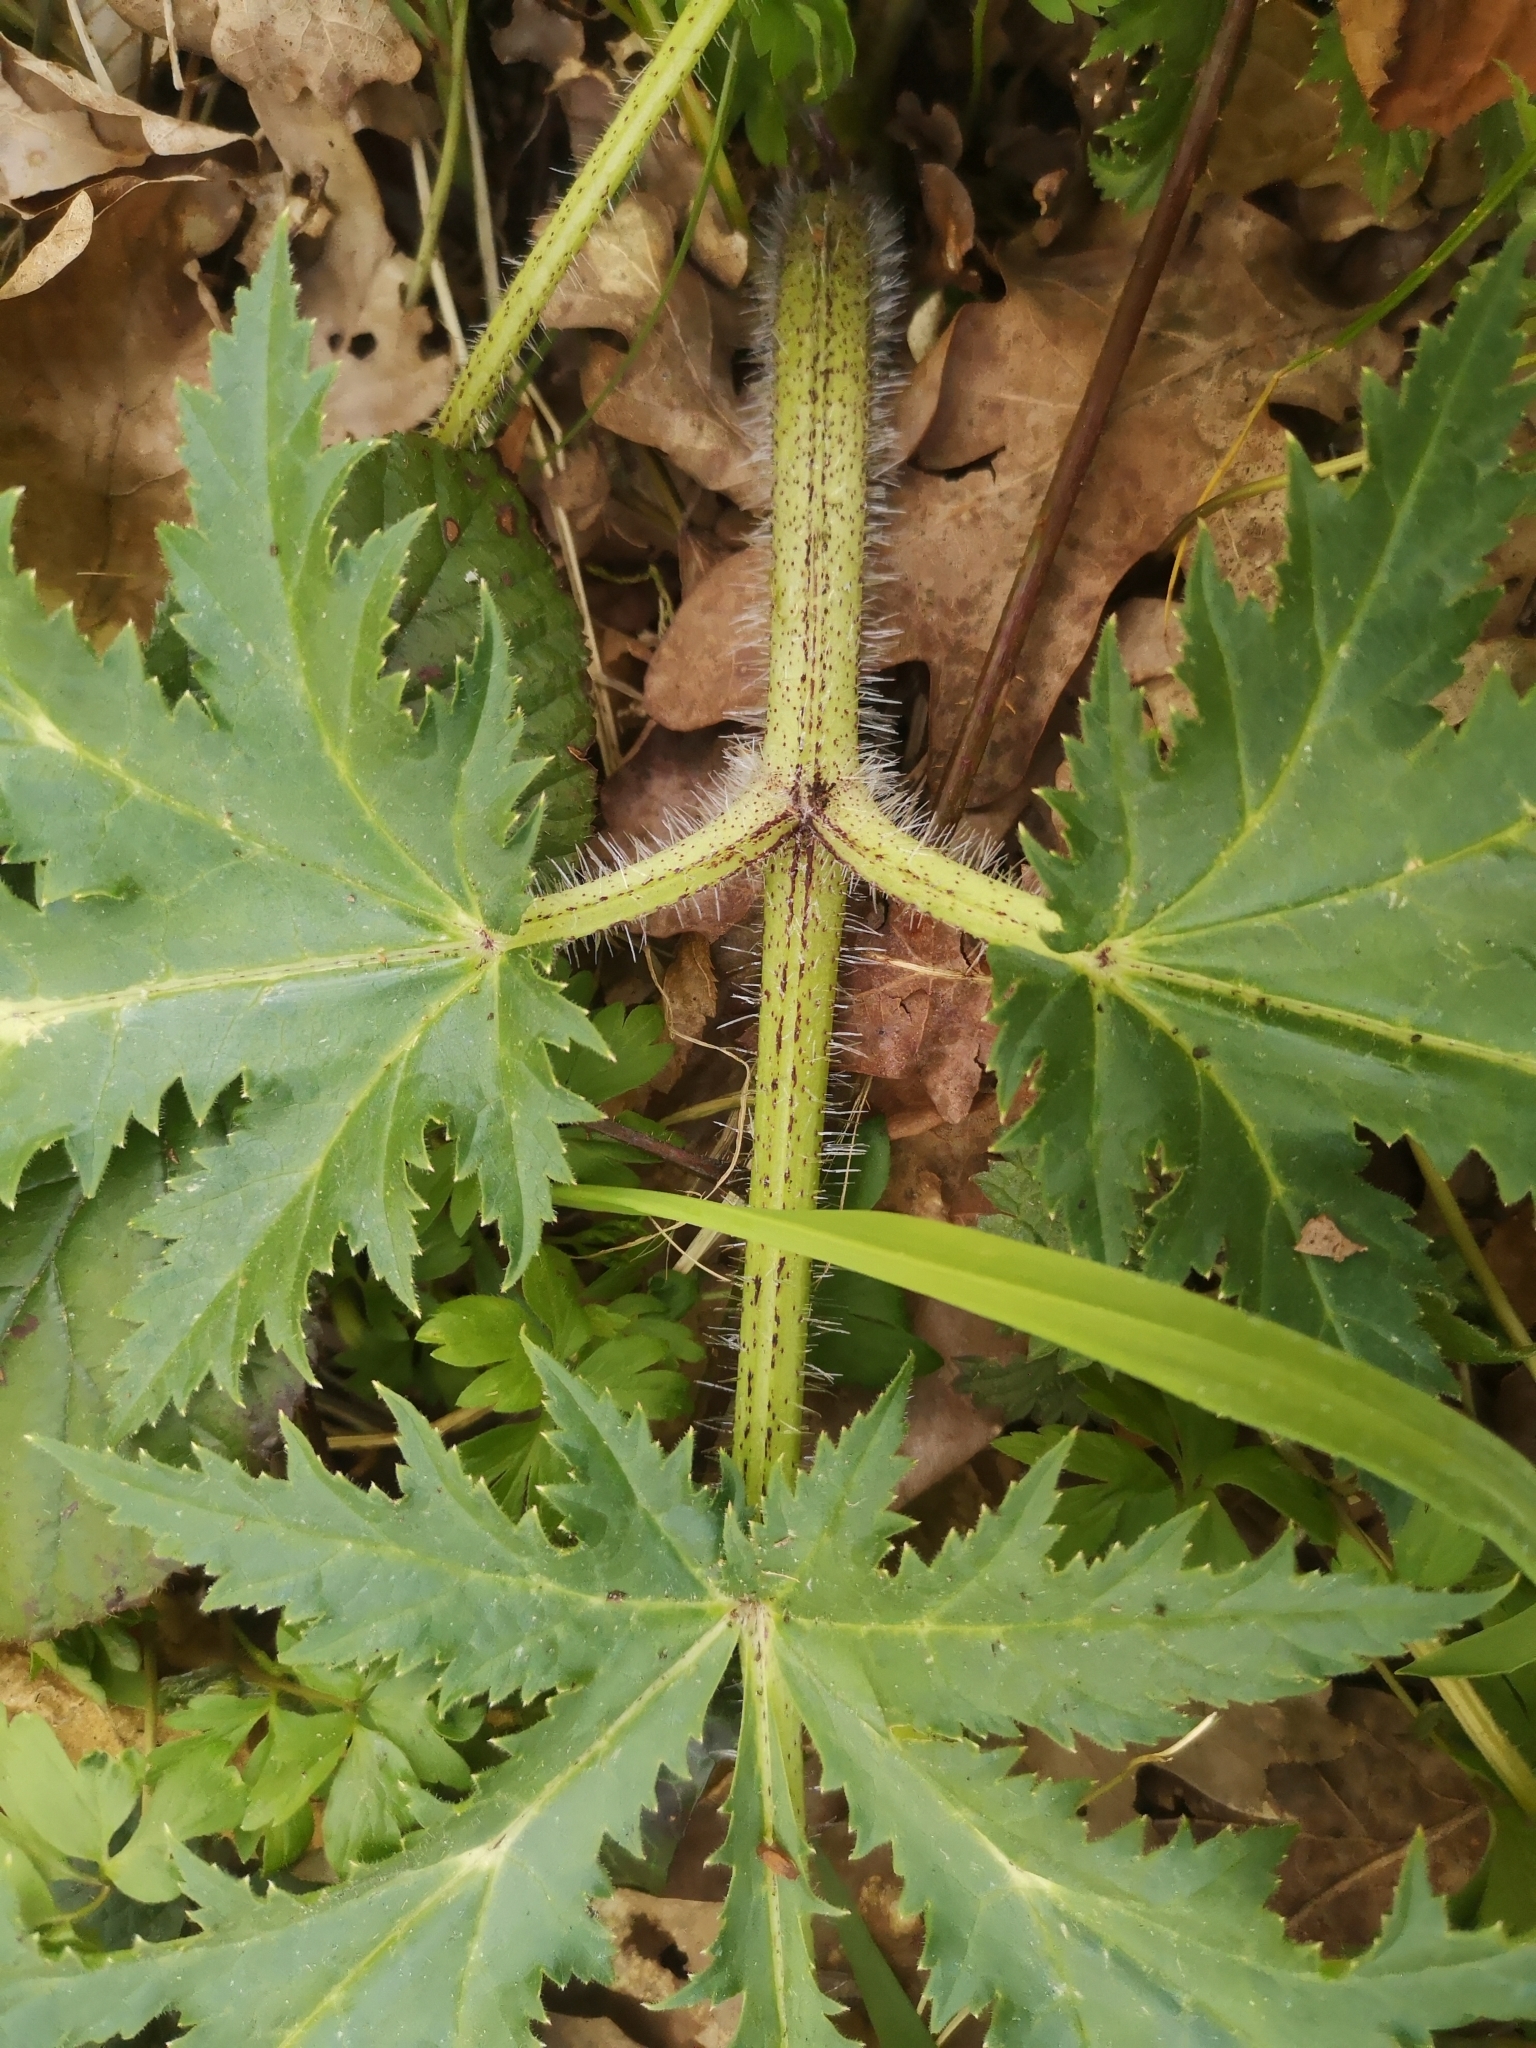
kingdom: Plantae
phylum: Tracheophyta
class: Magnoliopsida
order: Apiales
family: Apiaceae
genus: Heracleum
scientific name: Heracleum mantegazzianum
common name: Giant hogweed
